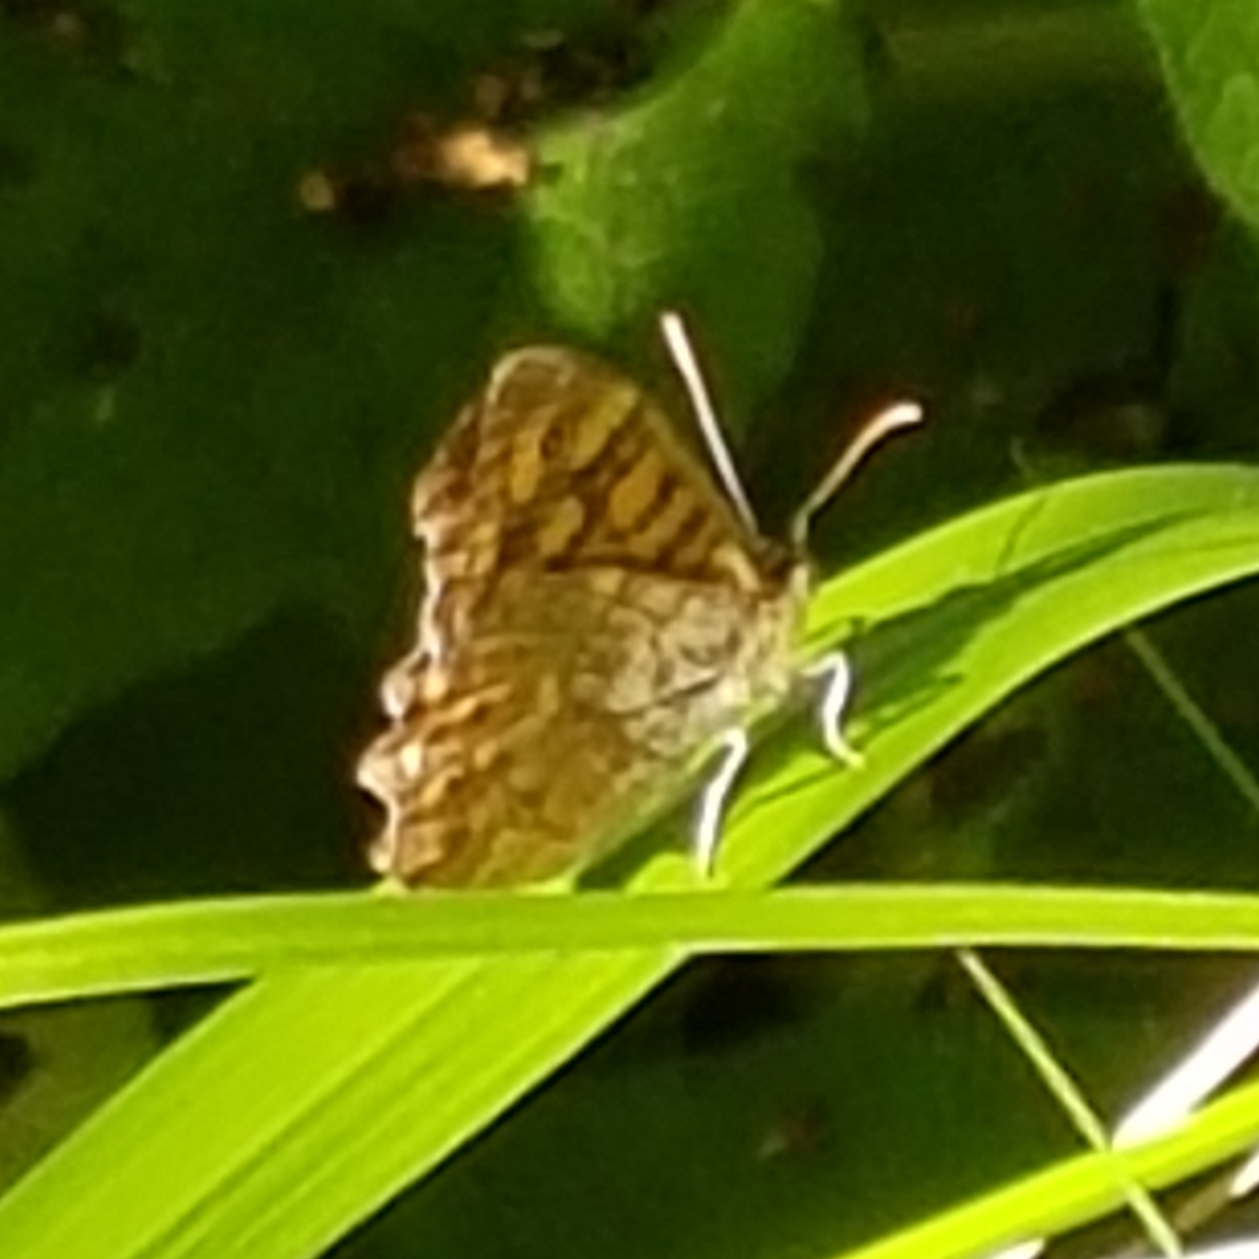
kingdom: Animalia
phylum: Arthropoda
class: Insecta
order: Lepidoptera
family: Nymphalidae
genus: Pararge
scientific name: Pararge aegeria
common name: Speckled wood
